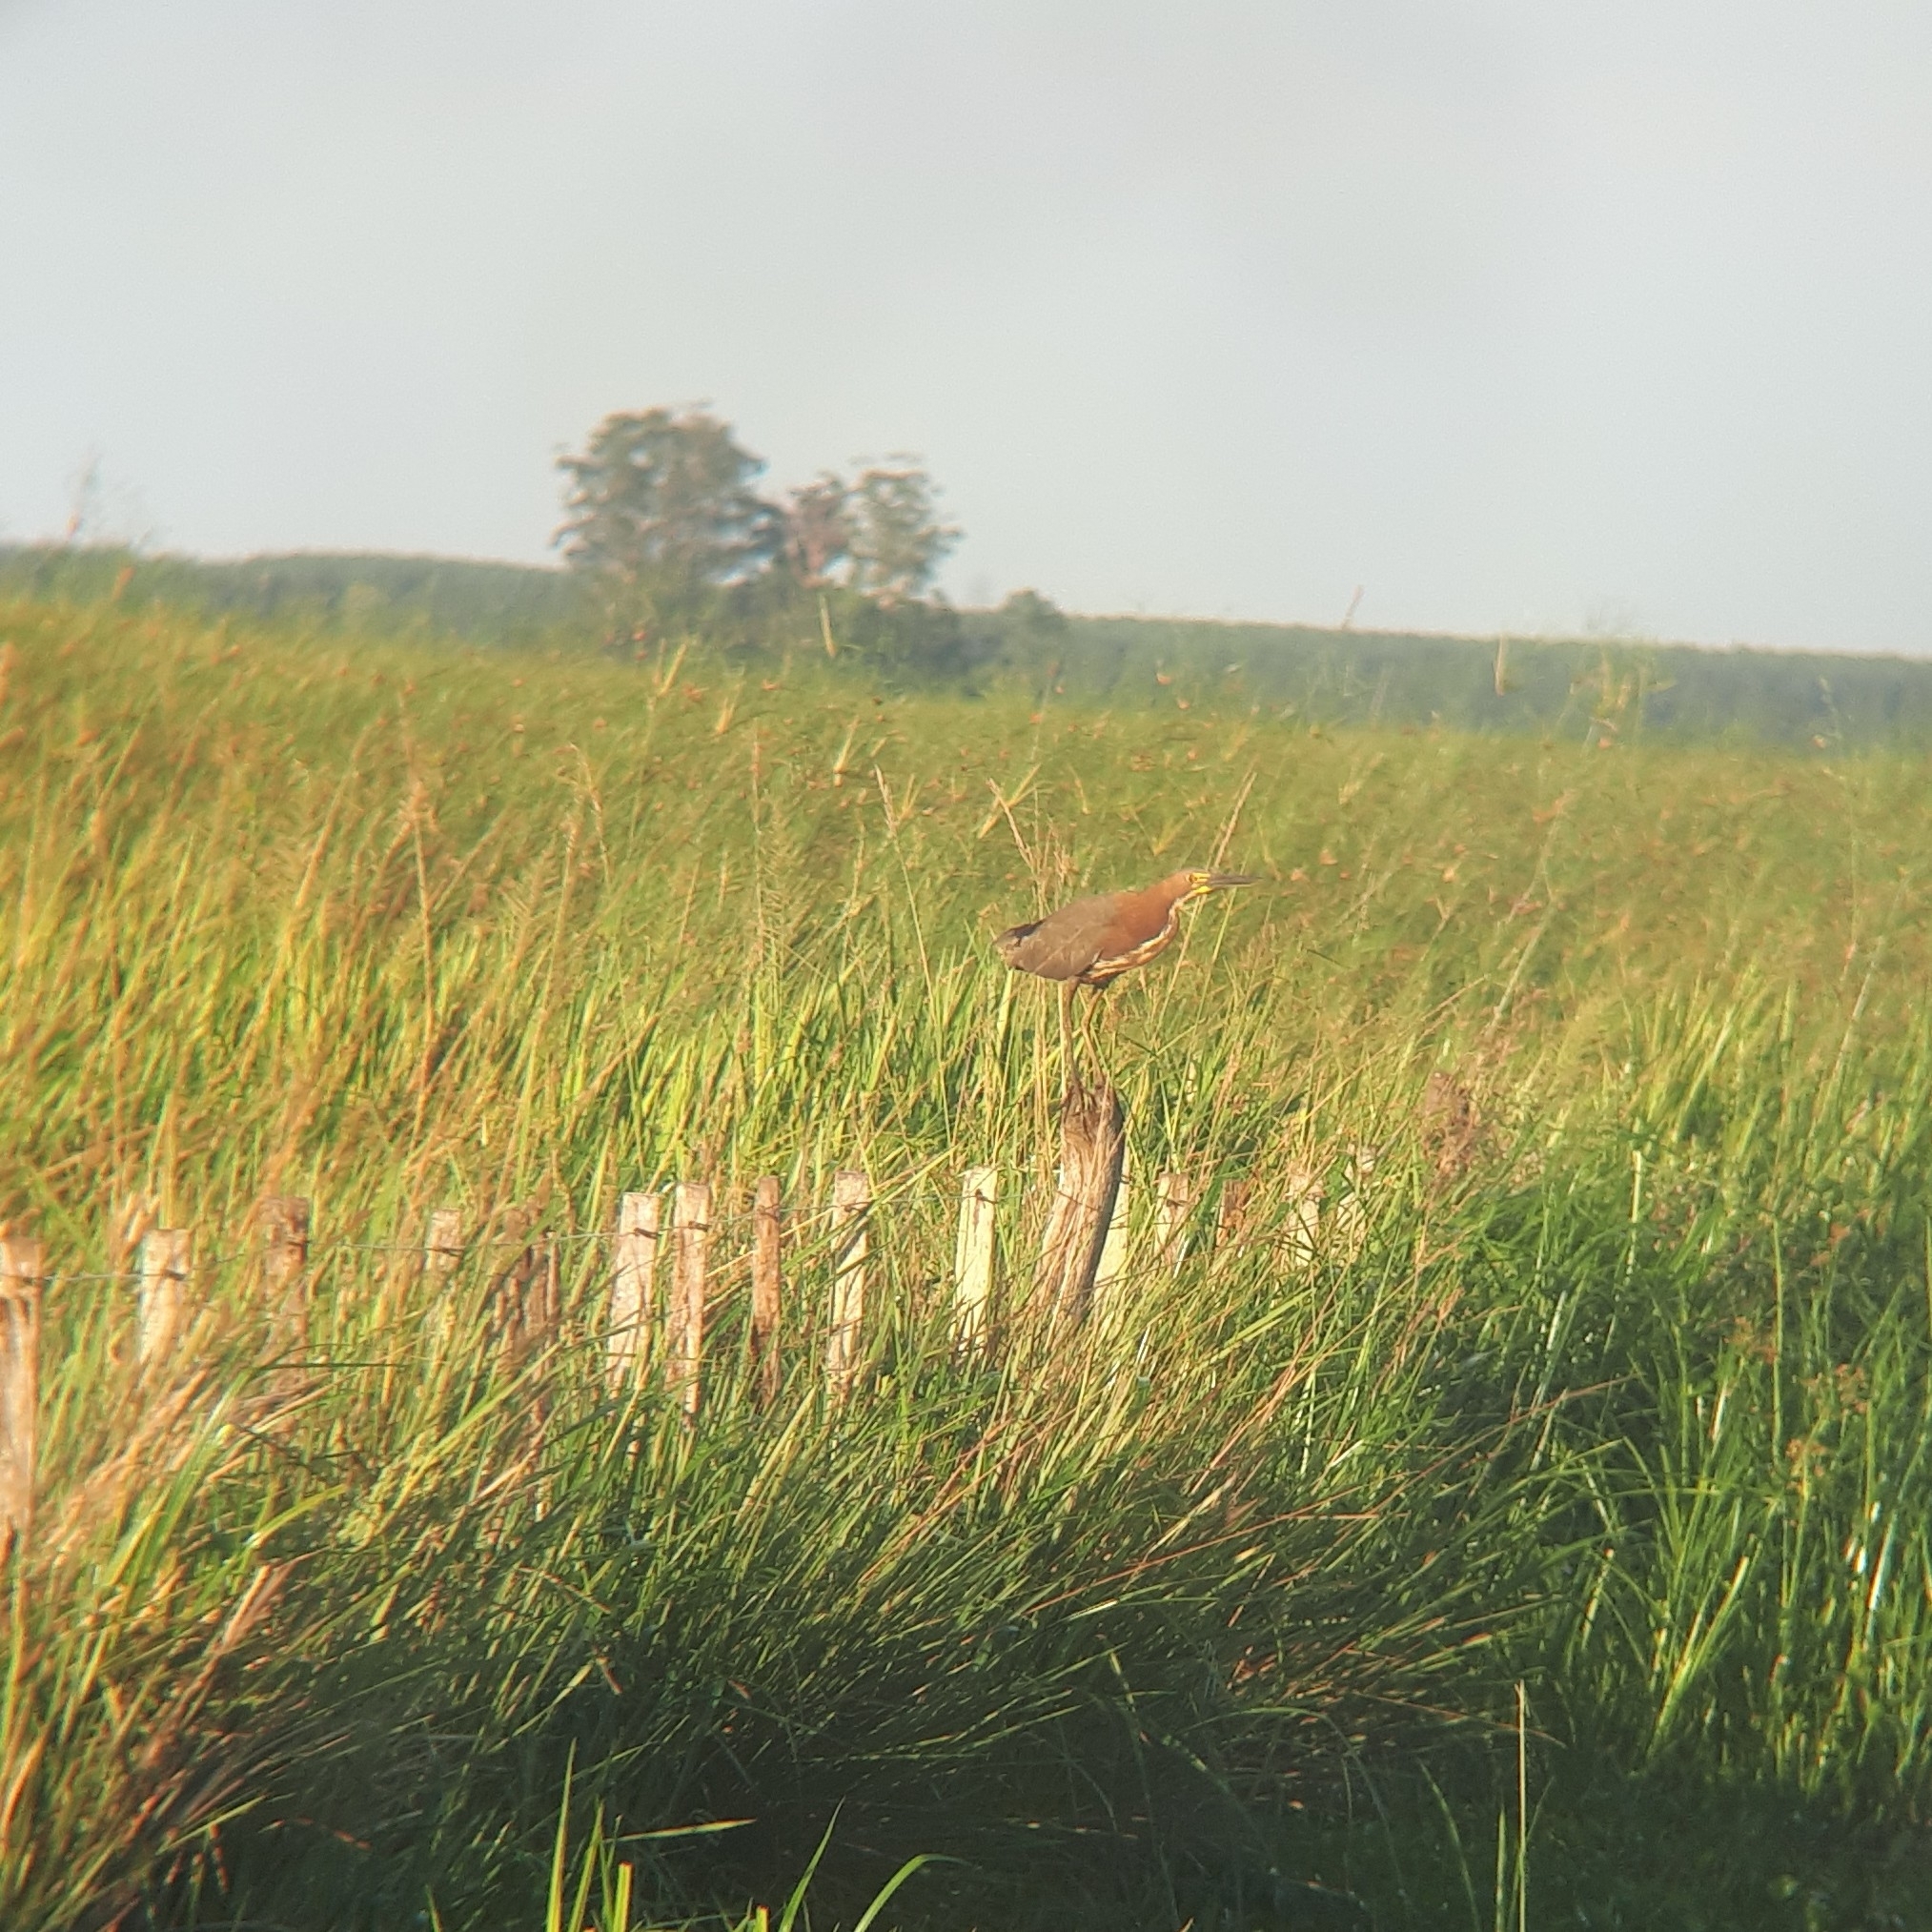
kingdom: Animalia
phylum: Chordata
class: Aves
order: Pelecaniformes
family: Ardeidae
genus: Tigrisoma
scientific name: Tigrisoma lineatum
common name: Rufescent tiger-heron
